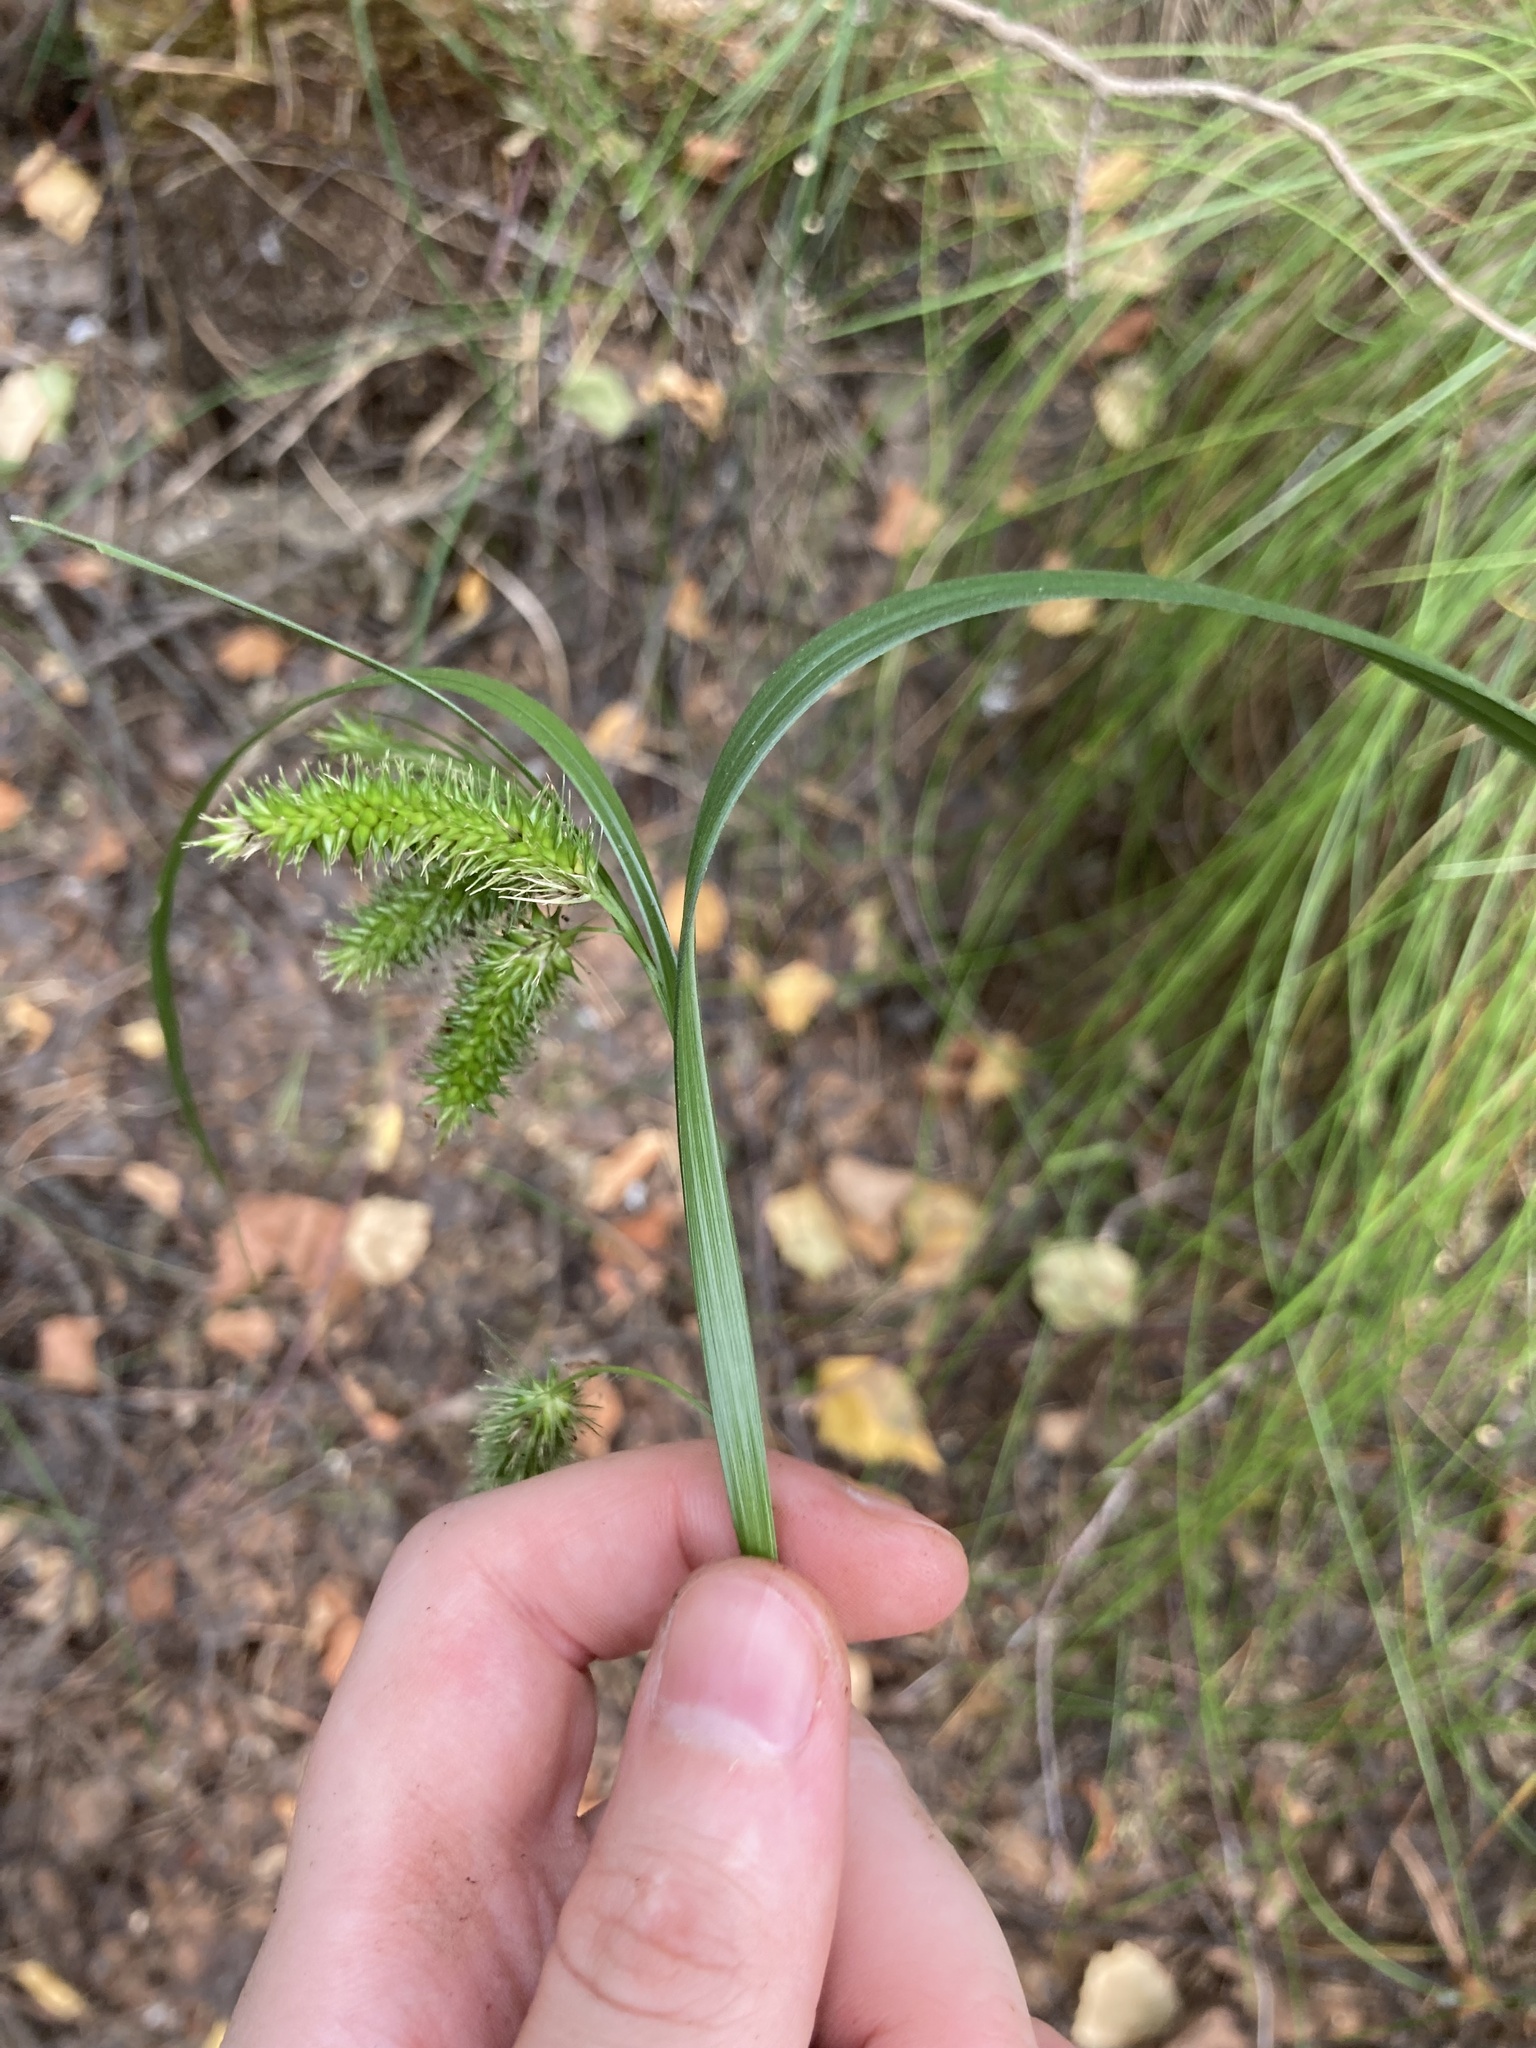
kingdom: Plantae
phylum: Tracheophyta
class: Liliopsida
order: Poales
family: Cyperaceae
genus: Carex
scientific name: Carex pseudocyperus
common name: Cyperus sedge
